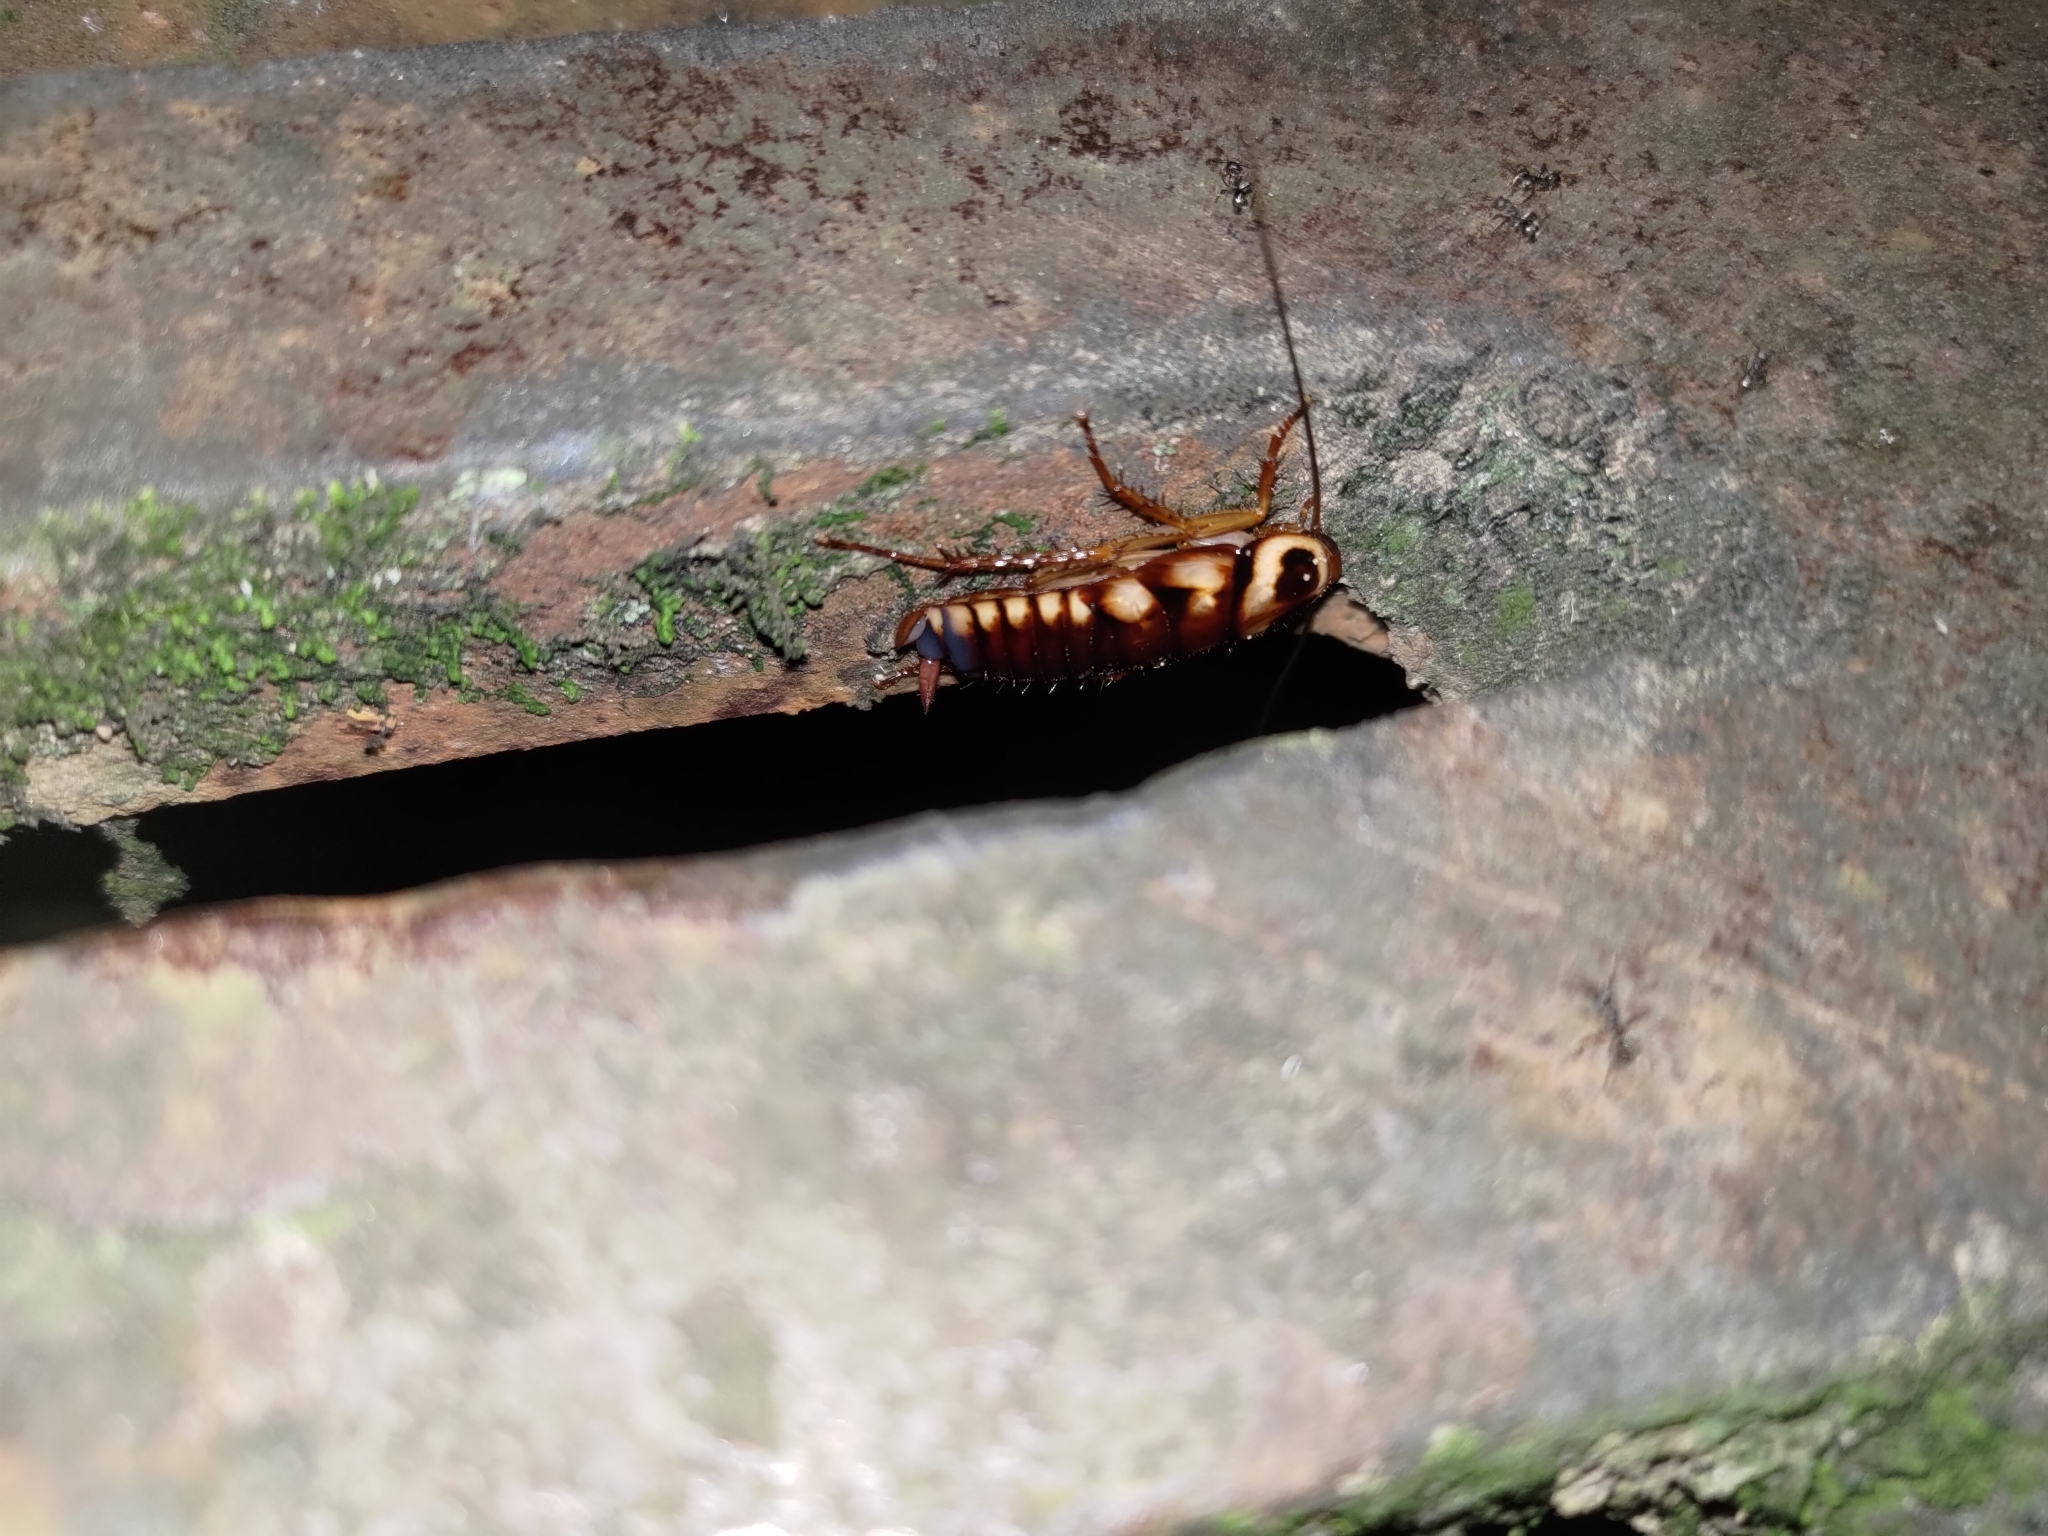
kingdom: Animalia
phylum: Arthropoda
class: Insecta
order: Blattodea
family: Blattidae
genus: Periplaneta
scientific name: Periplaneta australasiae
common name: Australian cockroach
